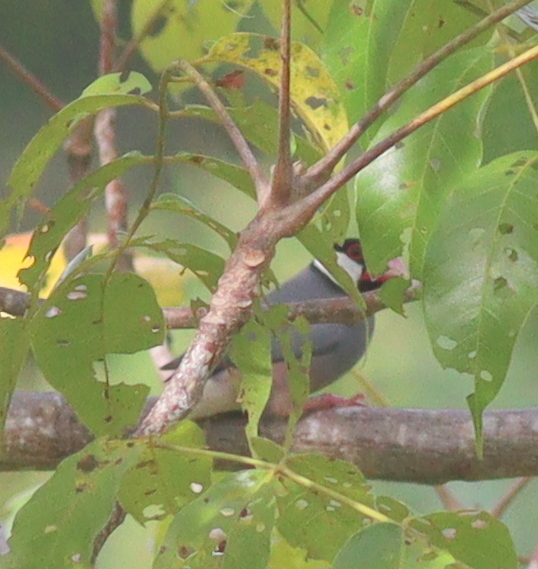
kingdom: Animalia
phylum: Chordata
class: Aves
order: Passeriformes
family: Estrildidae
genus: Lonchura
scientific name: Lonchura oryzivora
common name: Java sparrow
